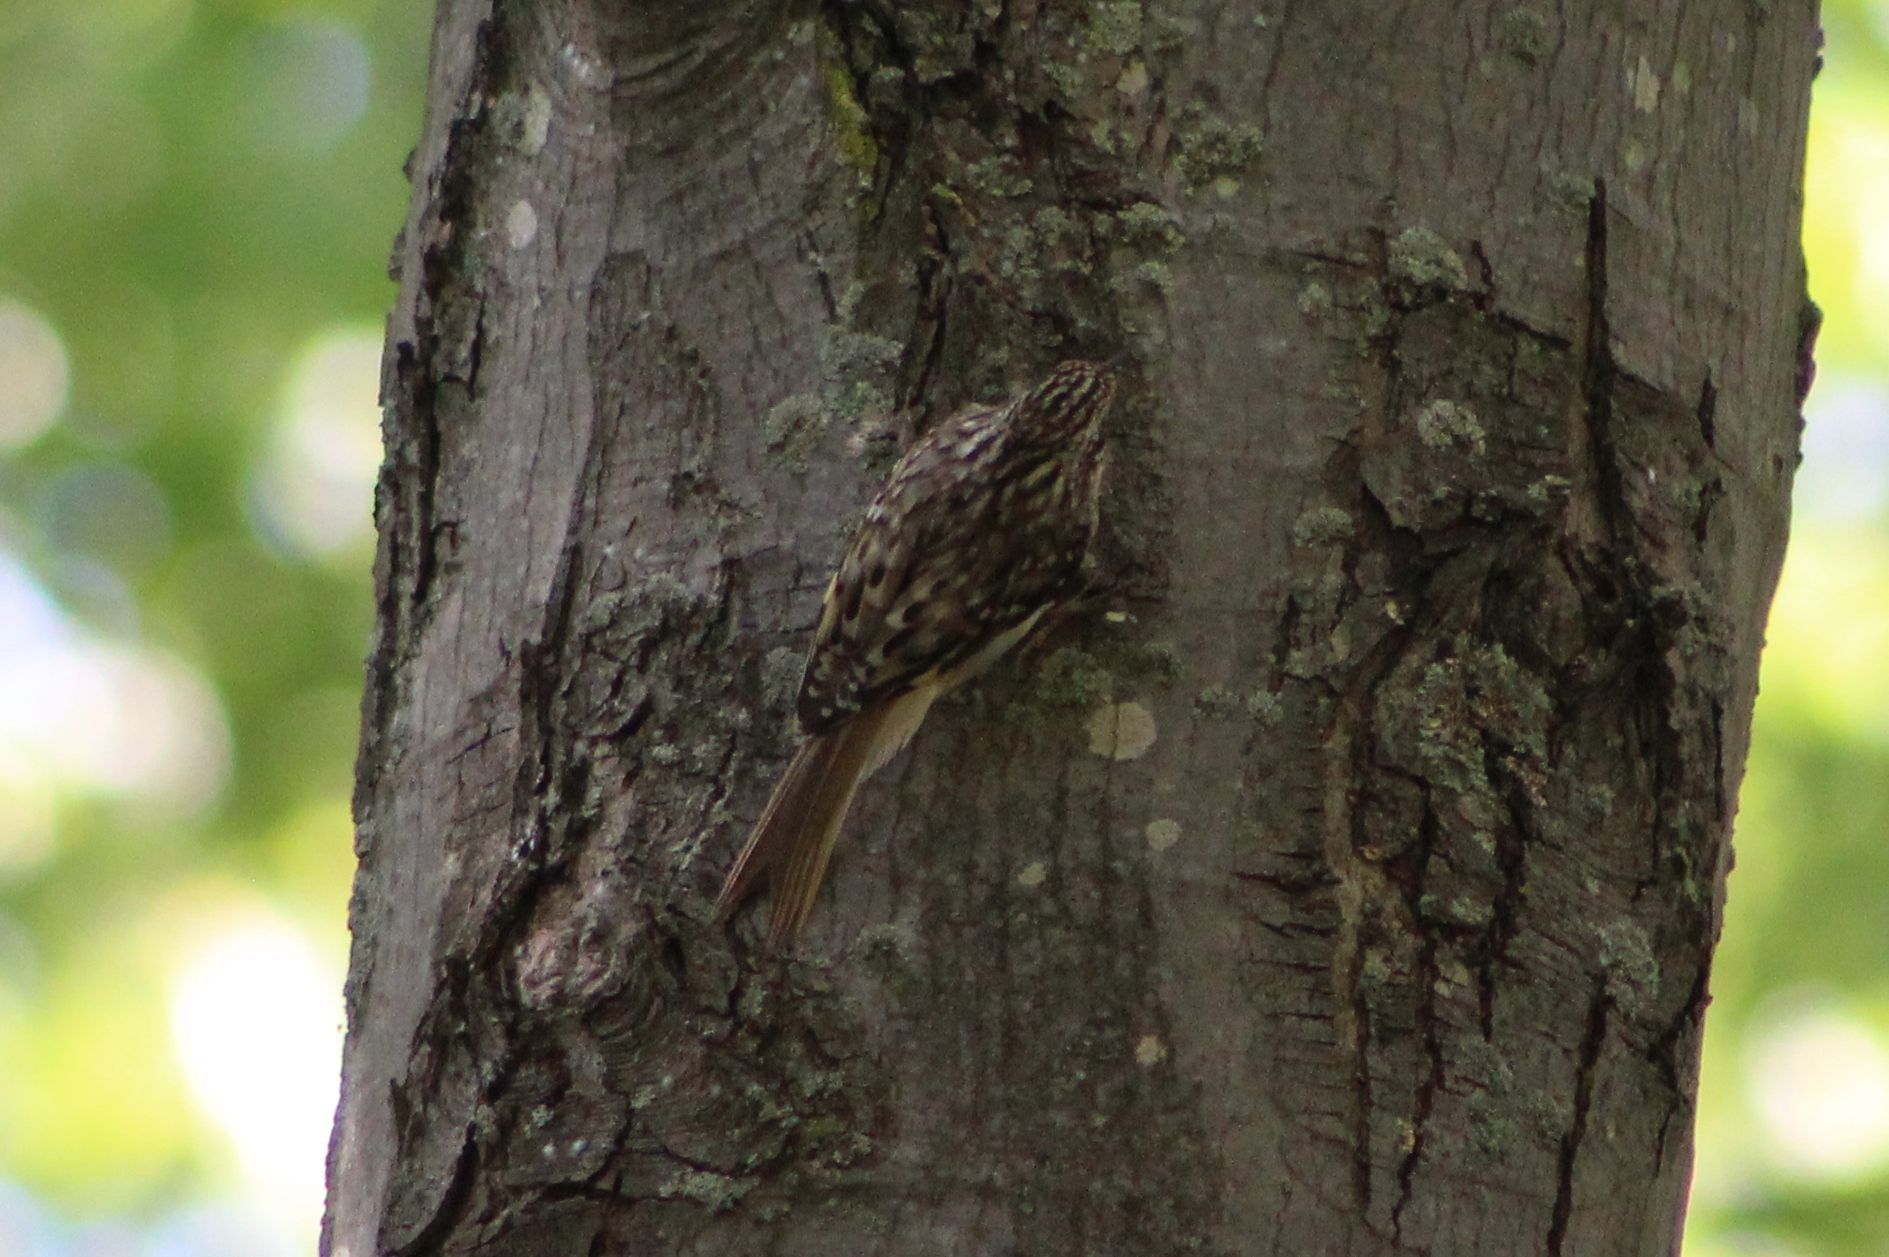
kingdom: Animalia
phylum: Chordata
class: Aves
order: Passeriformes
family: Certhiidae
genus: Certhia
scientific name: Certhia americana
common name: Brown creeper
